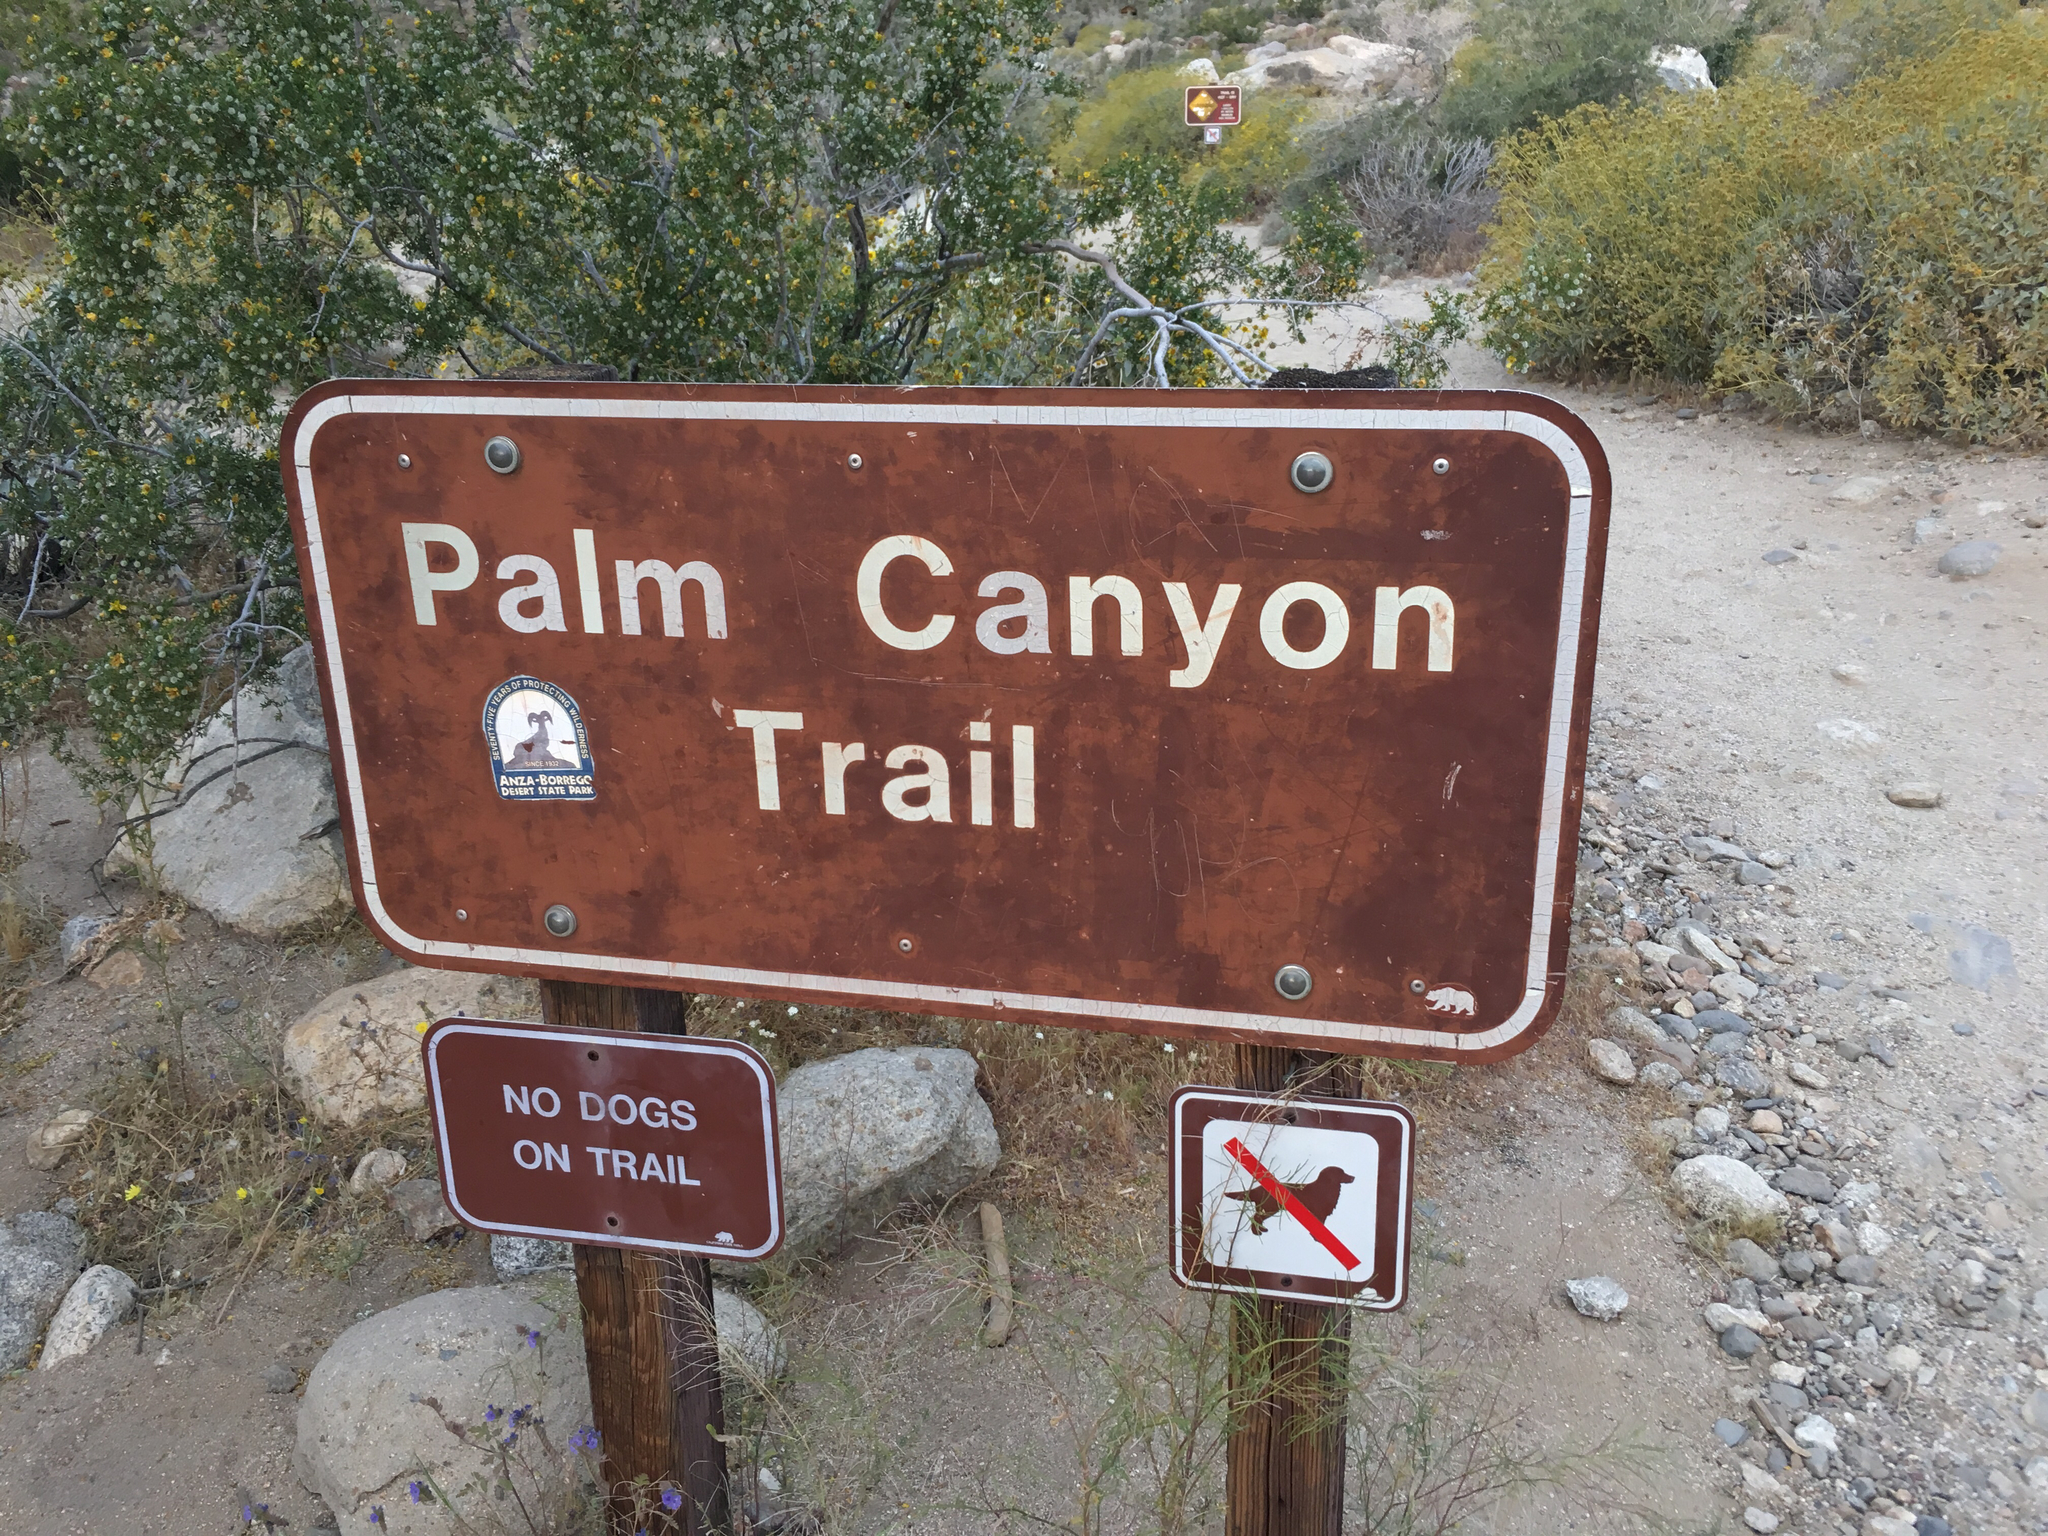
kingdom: Plantae
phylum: Tracheophyta
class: Magnoliopsida
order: Lamiales
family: Lamiaceae
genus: Condea
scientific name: Condea emoryi
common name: Chia
